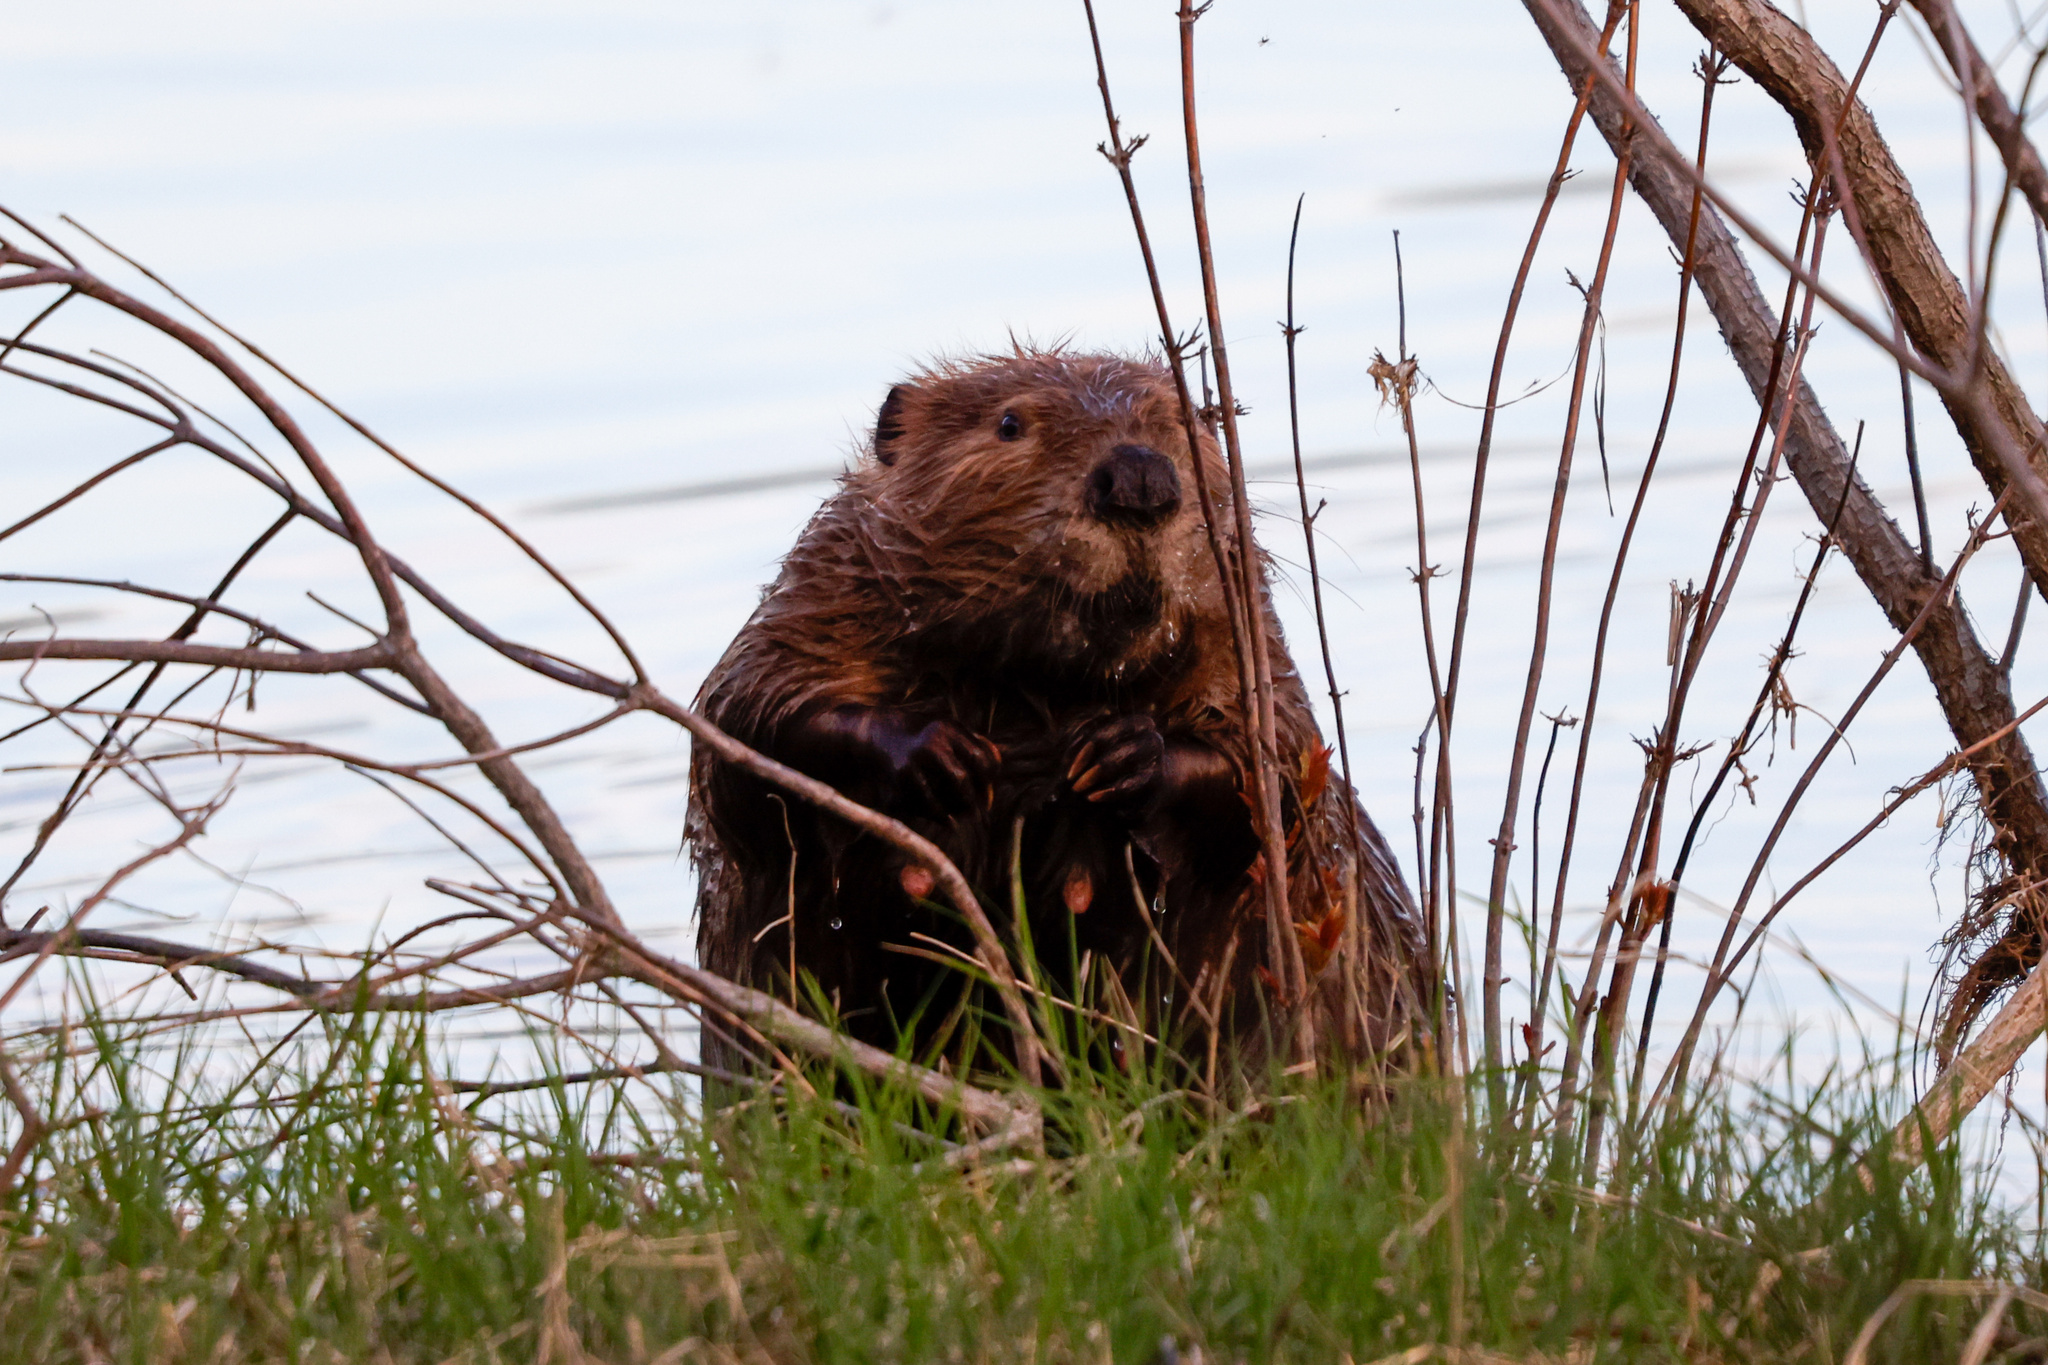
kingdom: Animalia
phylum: Chordata
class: Mammalia
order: Rodentia
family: Castoridae
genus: Castor
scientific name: Castor canadensis
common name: American beaver
